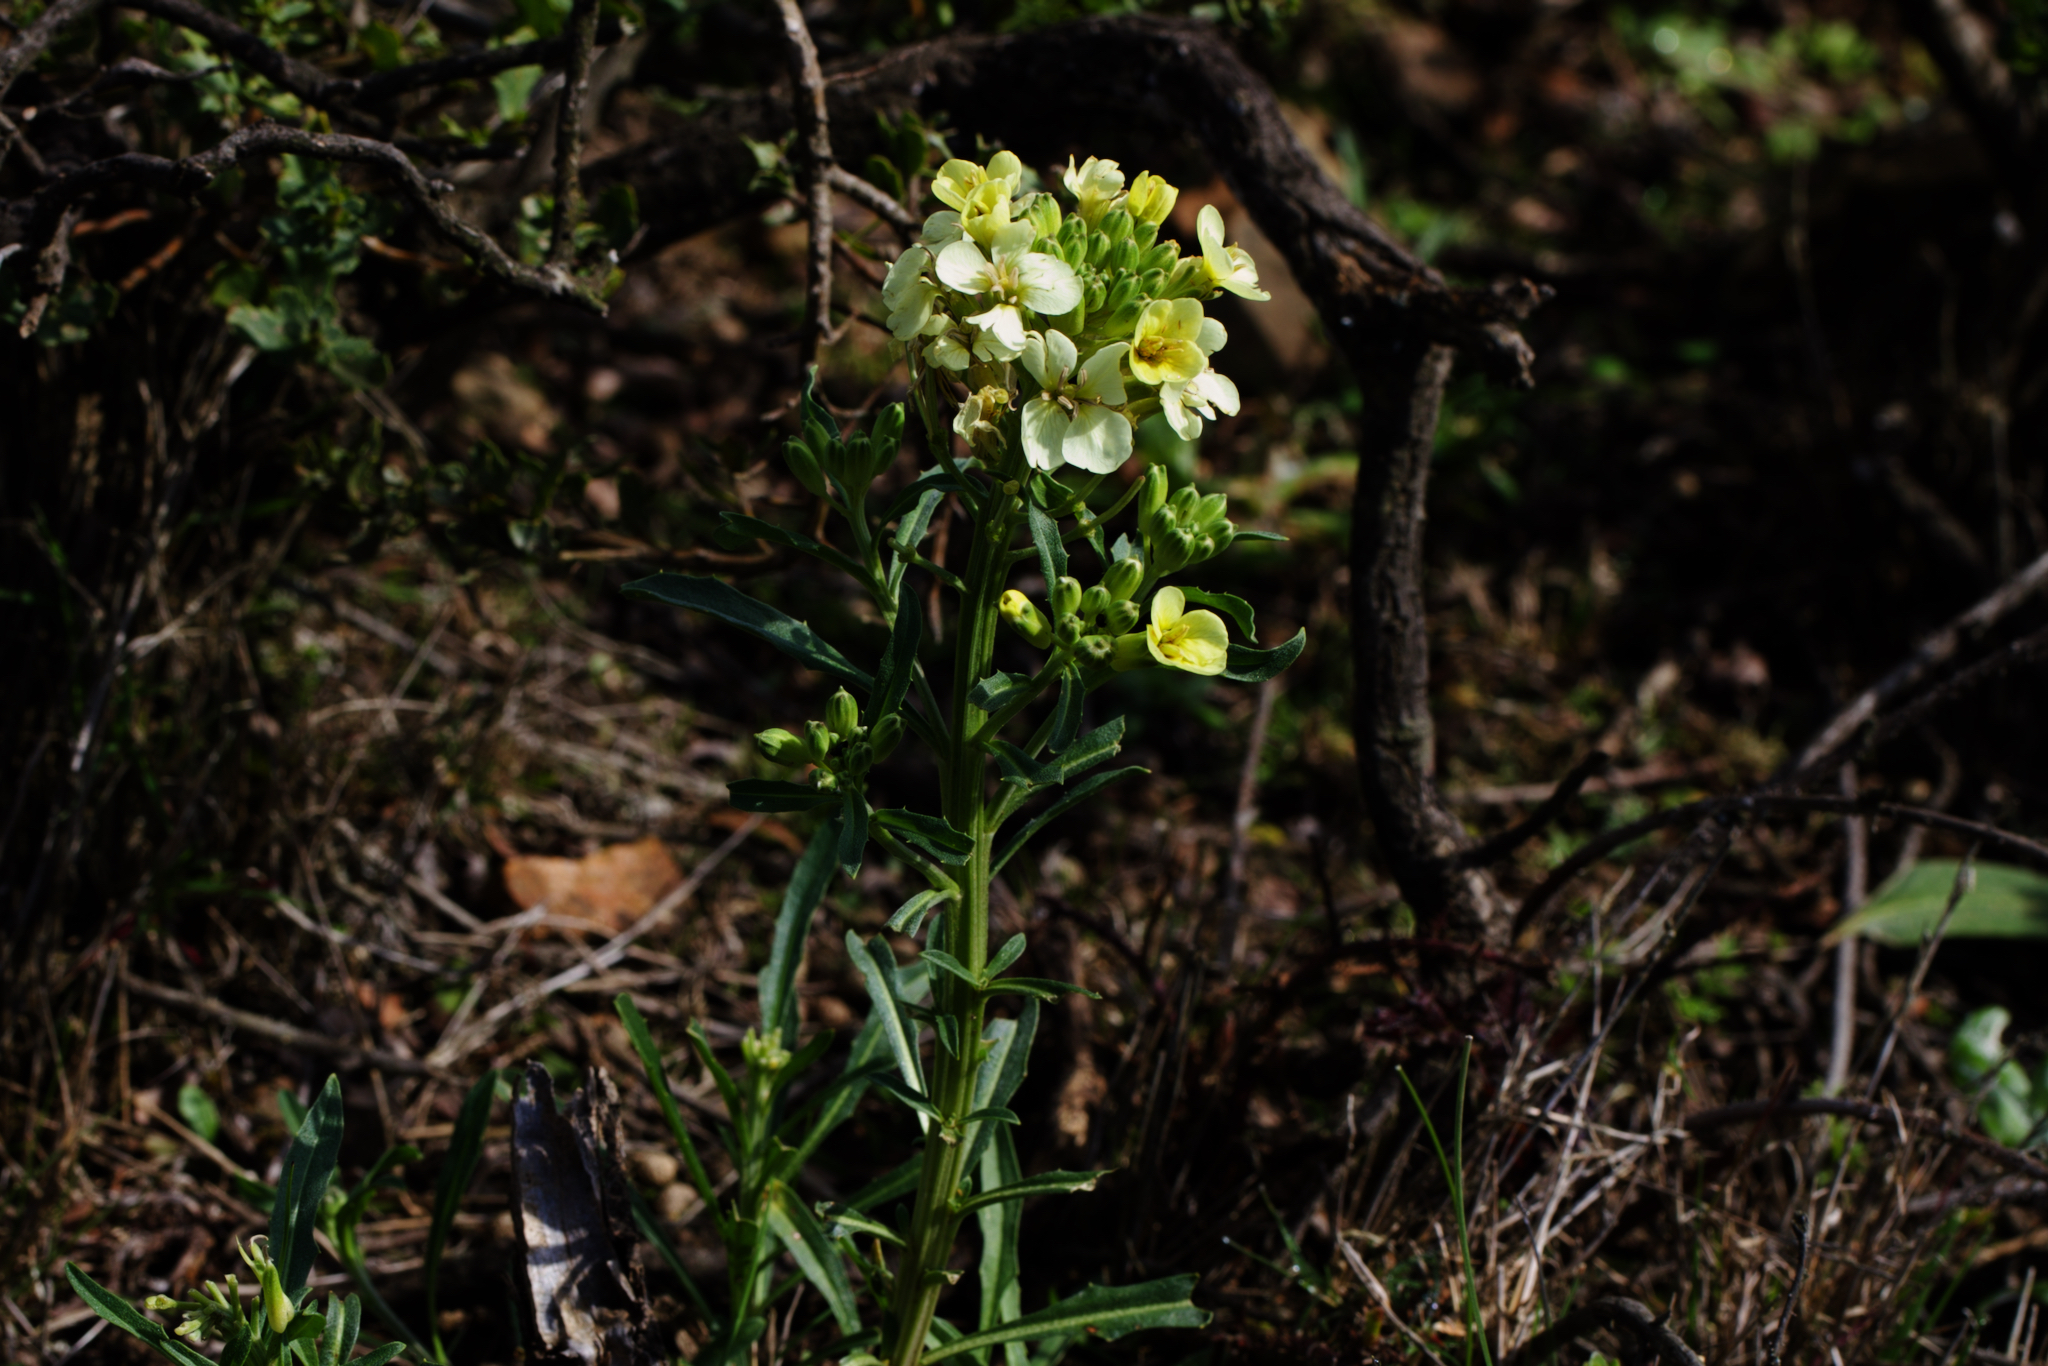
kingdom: Plantae
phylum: Tracheophyta
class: Magnoliopsida
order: Brassicales
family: Brassicaceae
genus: Erysimum
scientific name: Erysimum franciscanum
